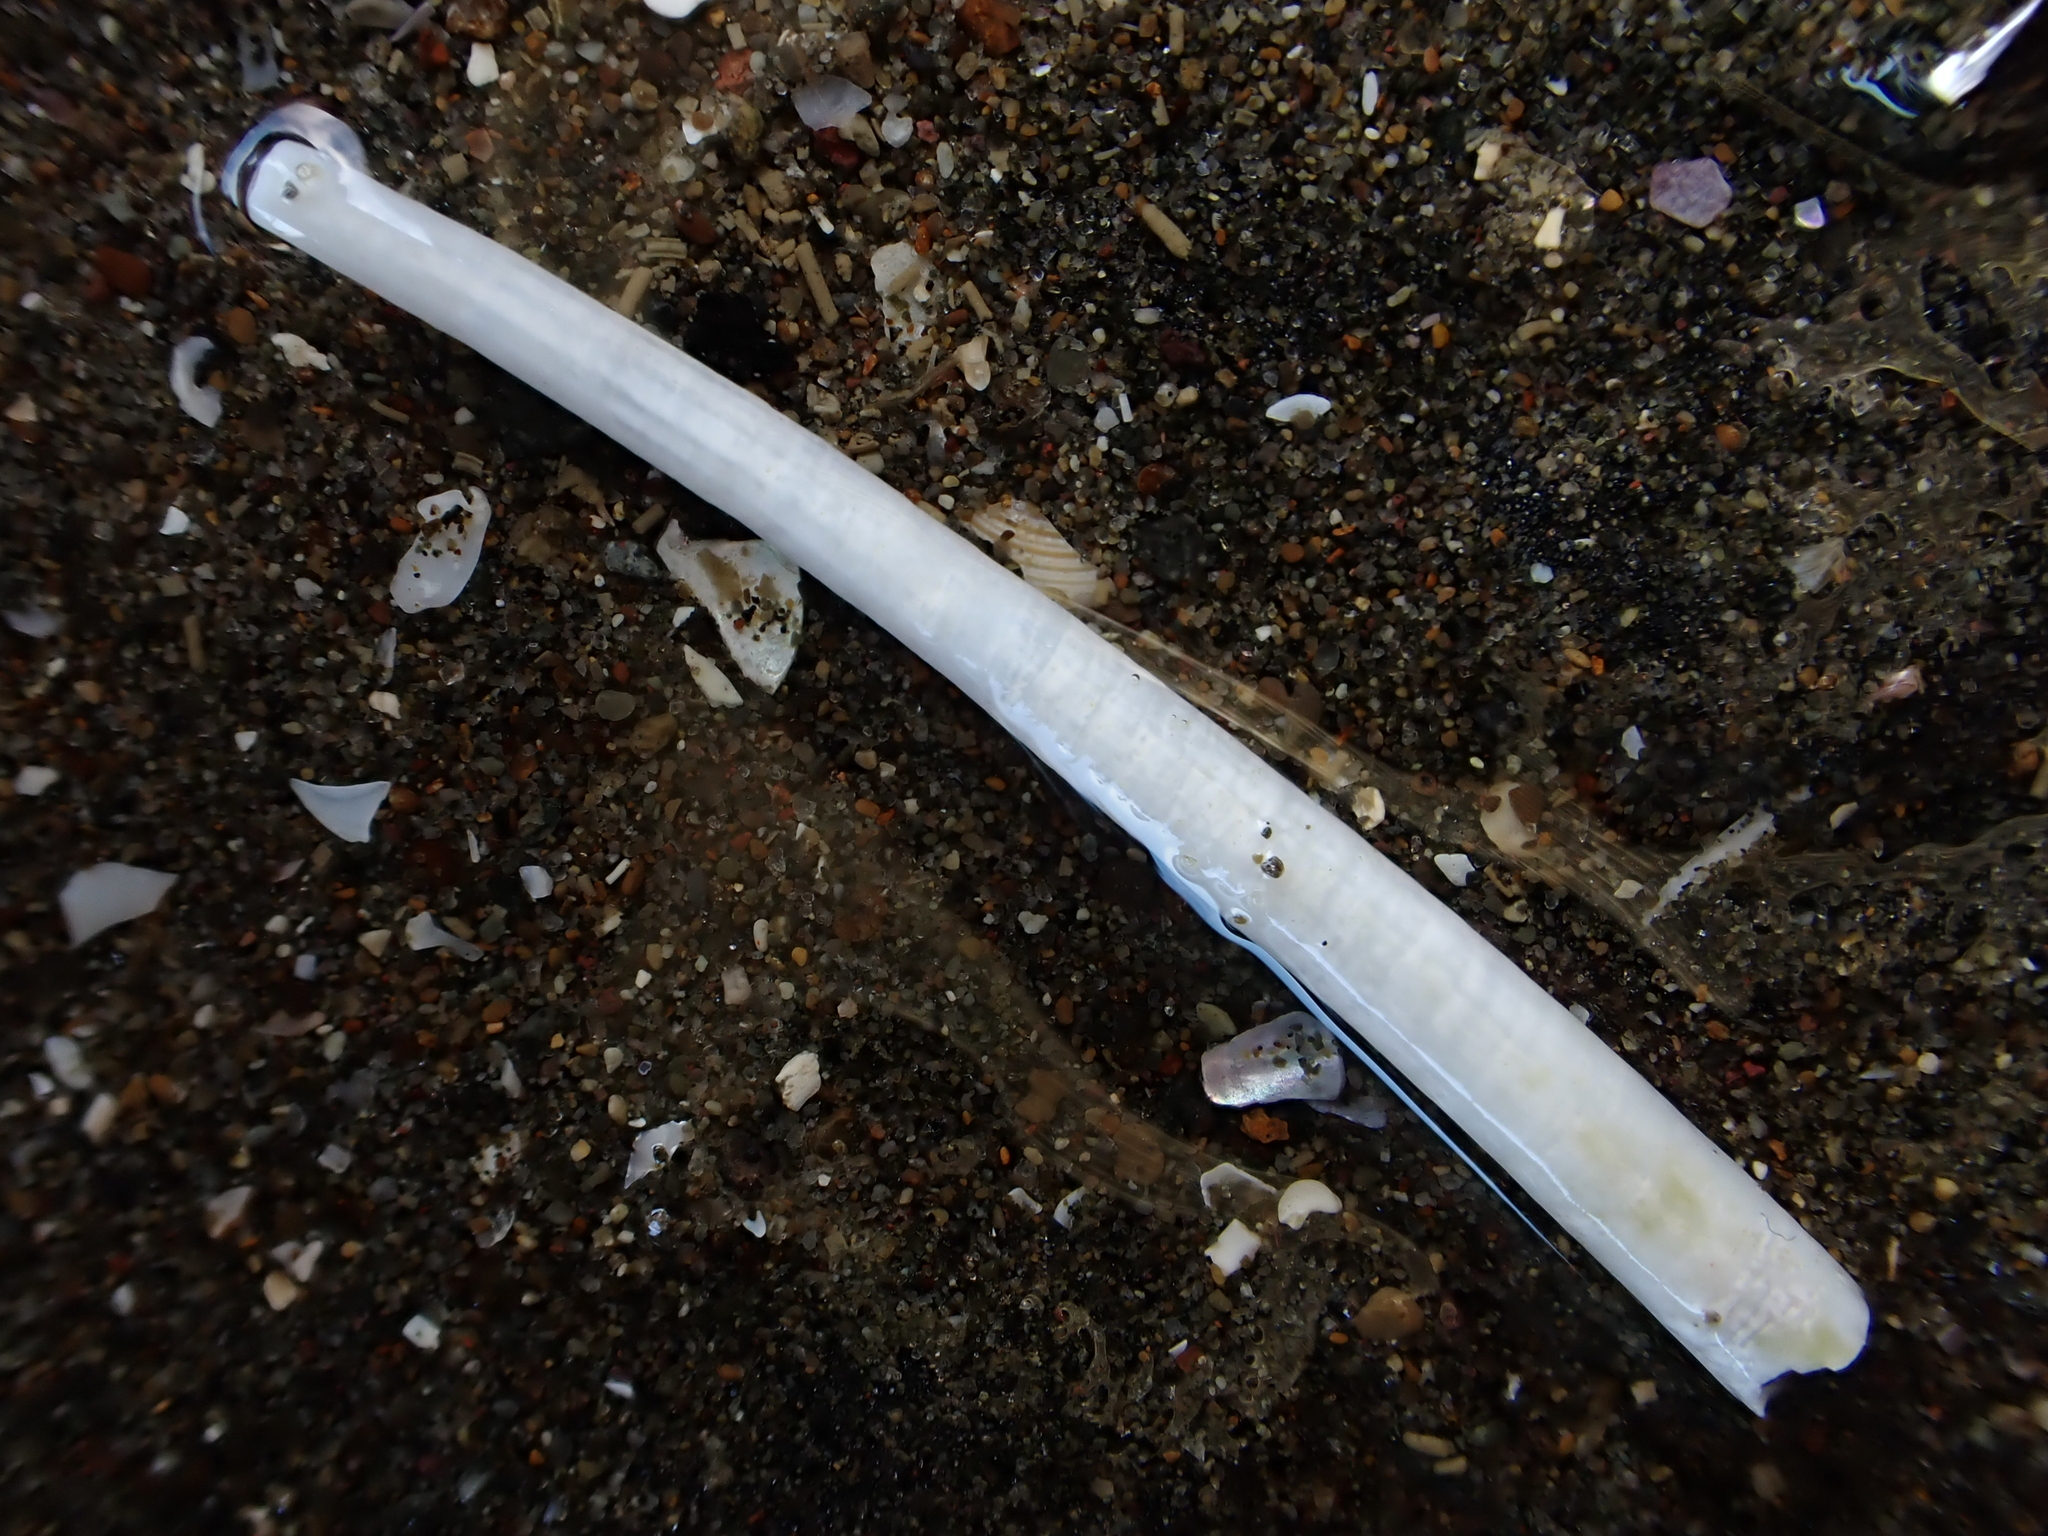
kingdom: Animalia
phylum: Mollusca
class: Scaphopoda
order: Dentaliida
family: Dentaliidae
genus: Antalis
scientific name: Antalis nana
